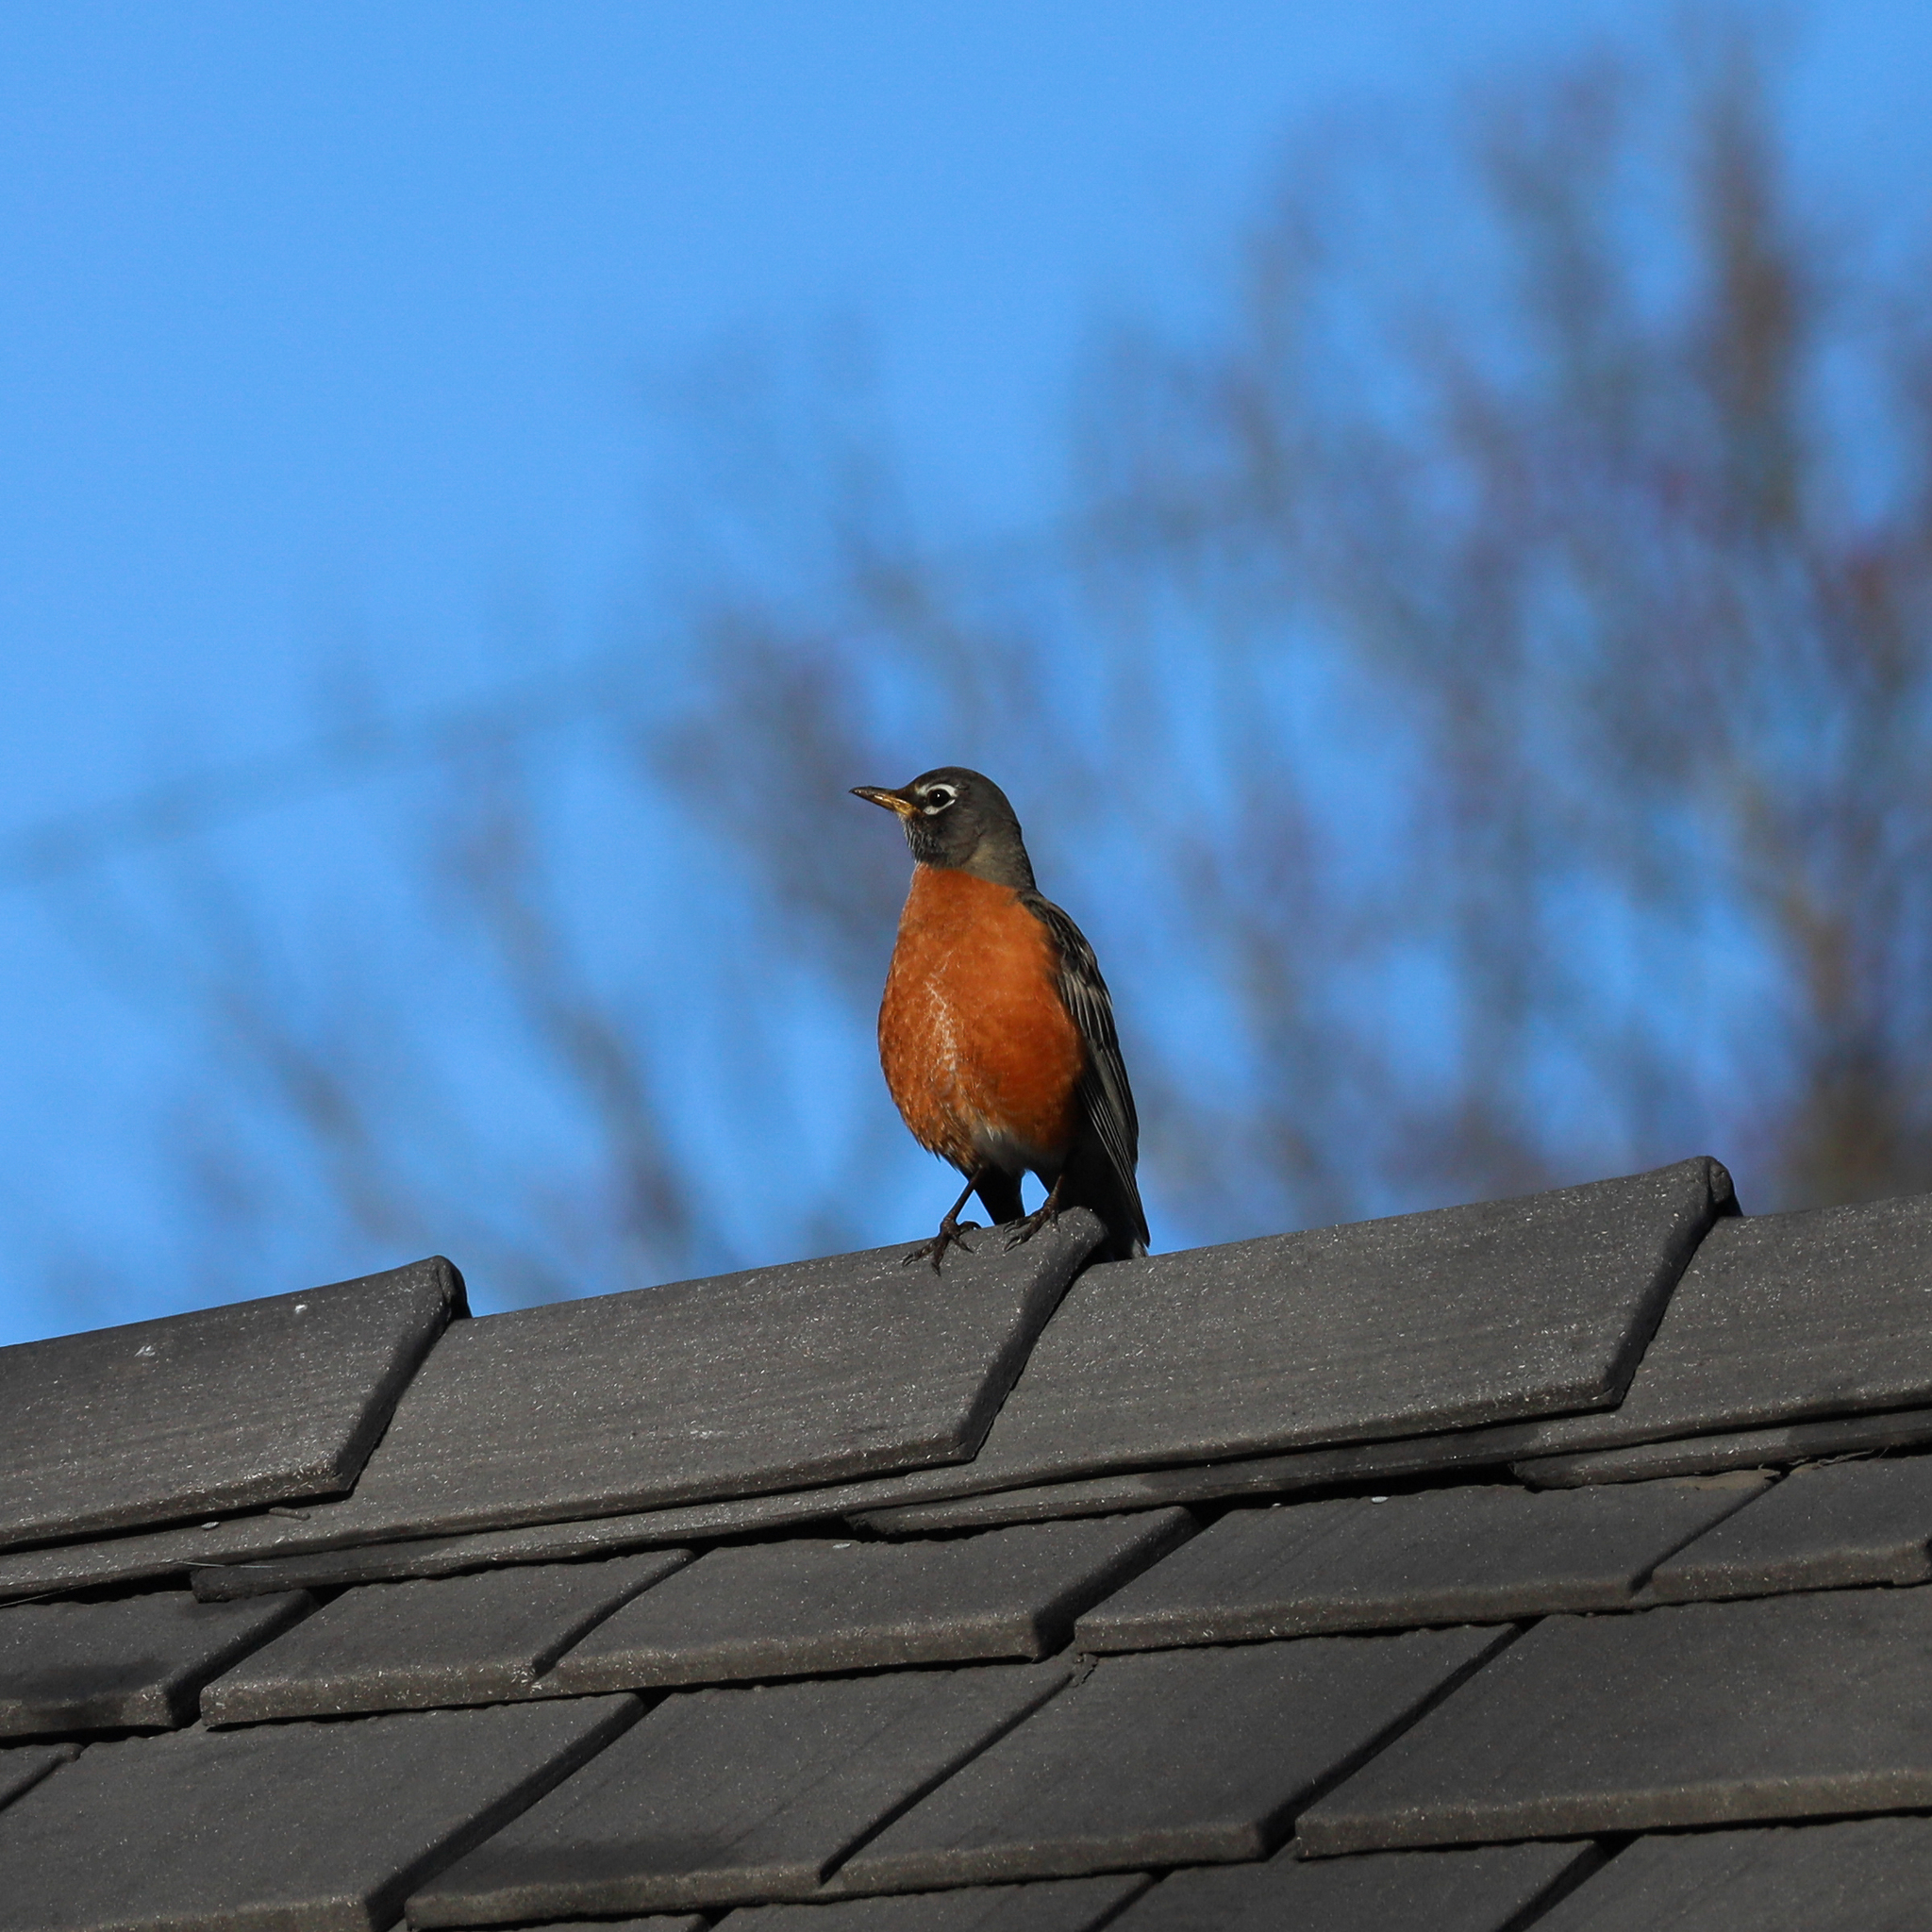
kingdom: Animalia
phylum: Chordata
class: Aves
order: Passeriformes
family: Turdidae
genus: Turdus
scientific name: Turdus migratorius
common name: American robin
